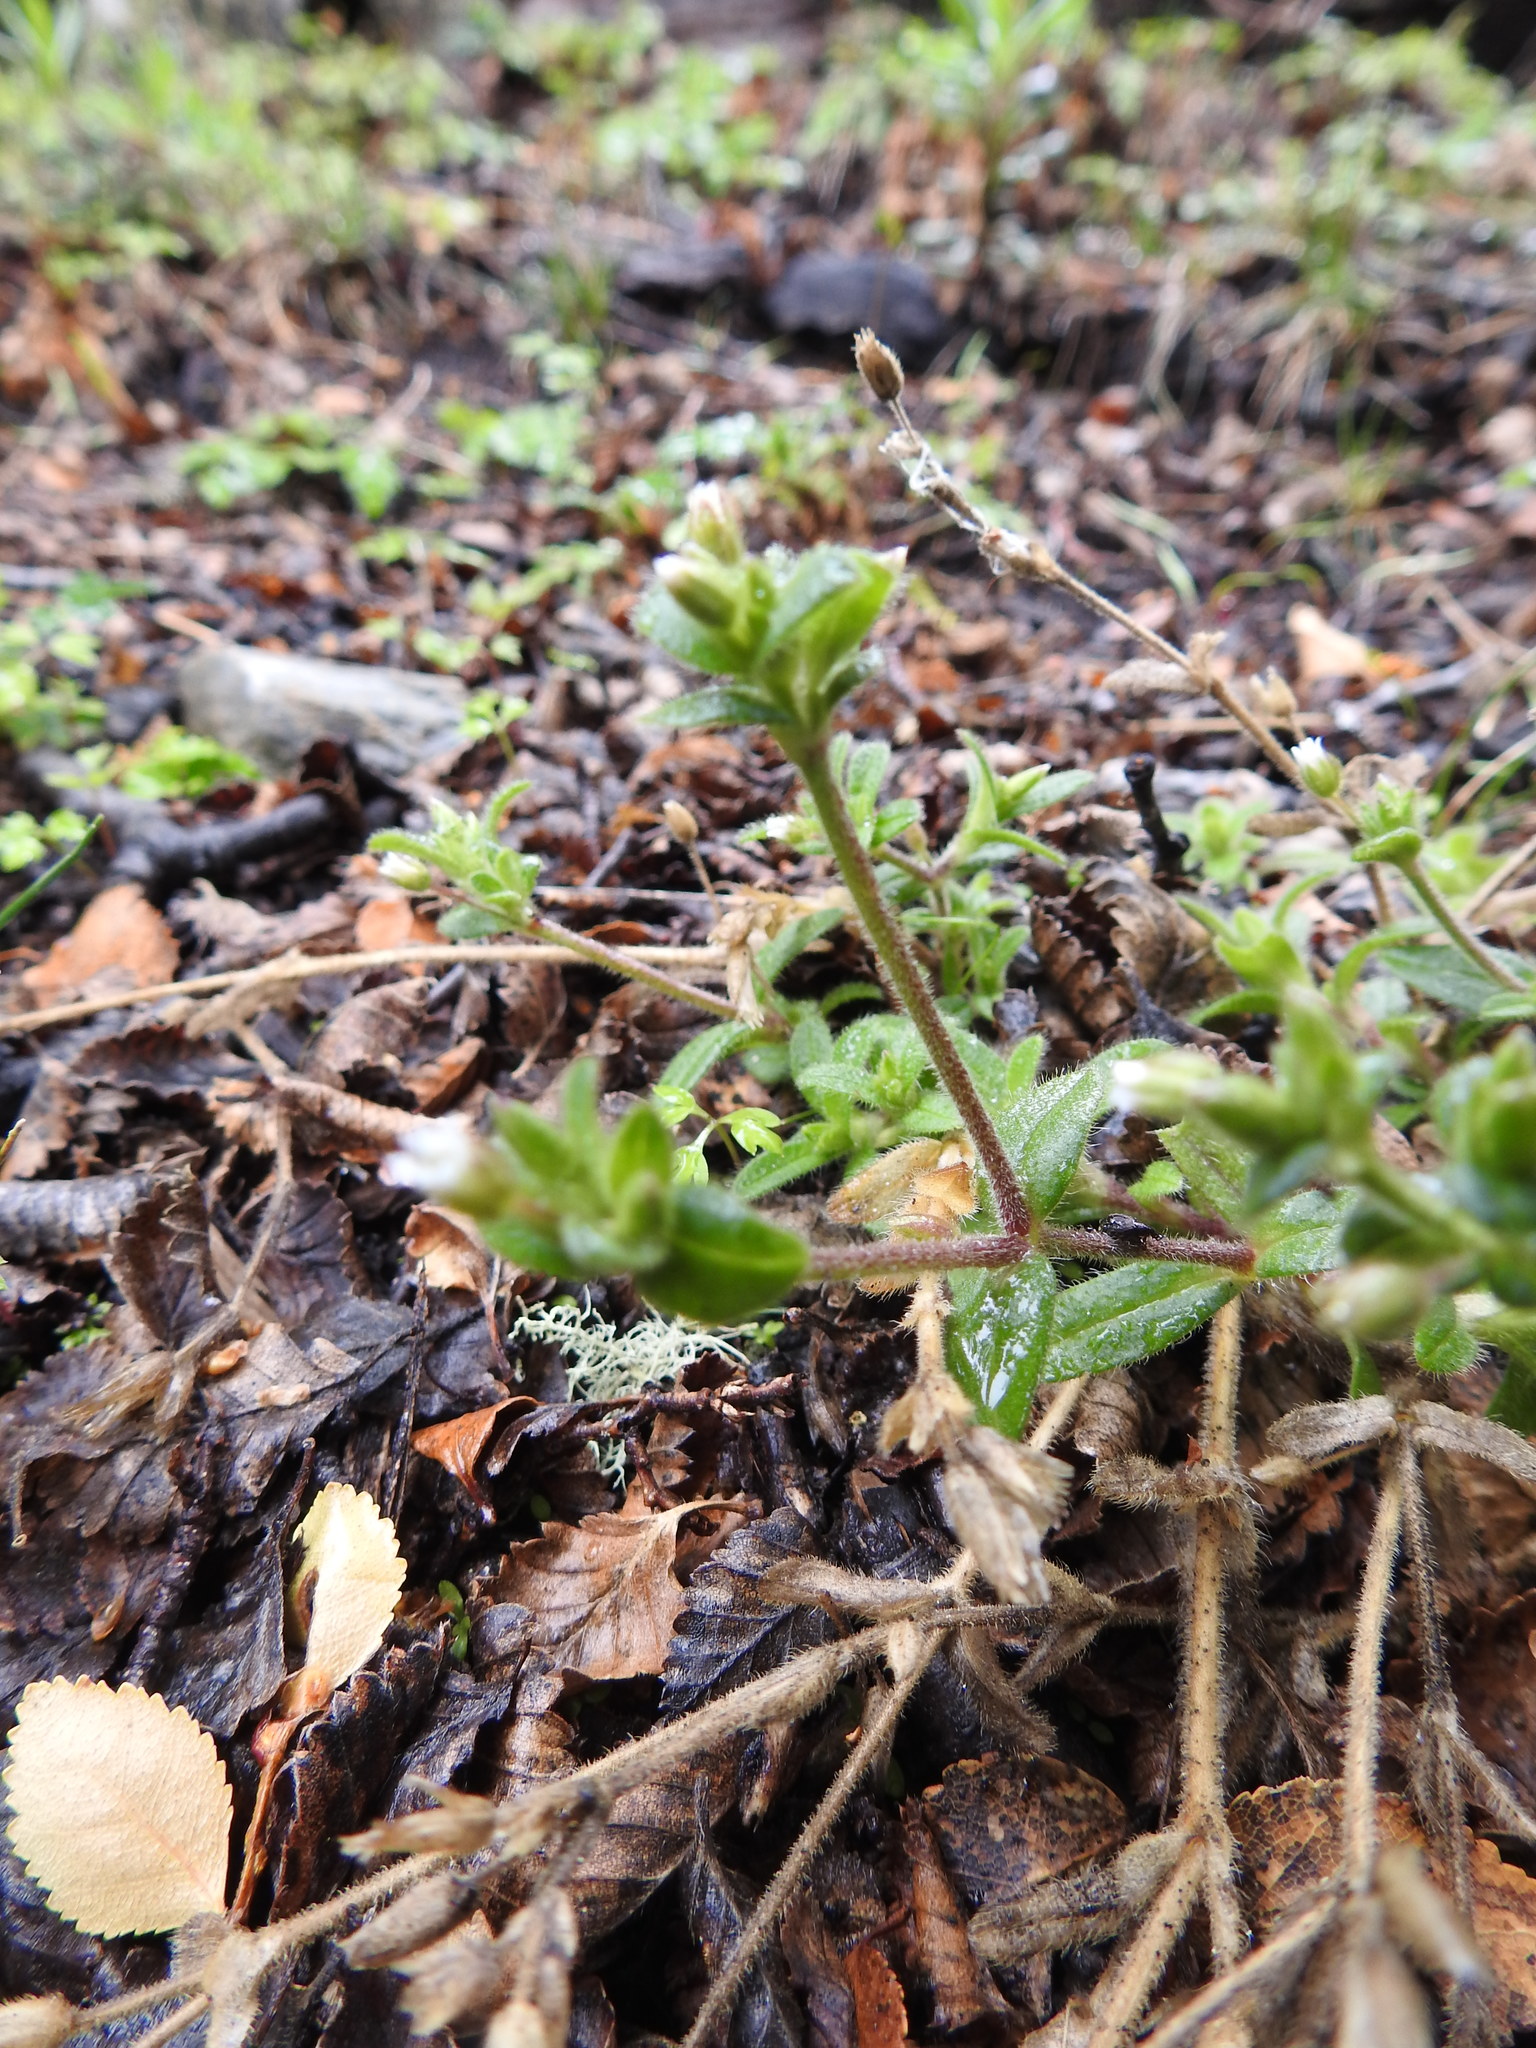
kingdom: Plantae
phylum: Tracheophyta
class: Magnoliopsida
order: Caryophyllales
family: Caryophyllaceae
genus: Cerastium
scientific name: Cerastium arvense
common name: Field mouse-ear
